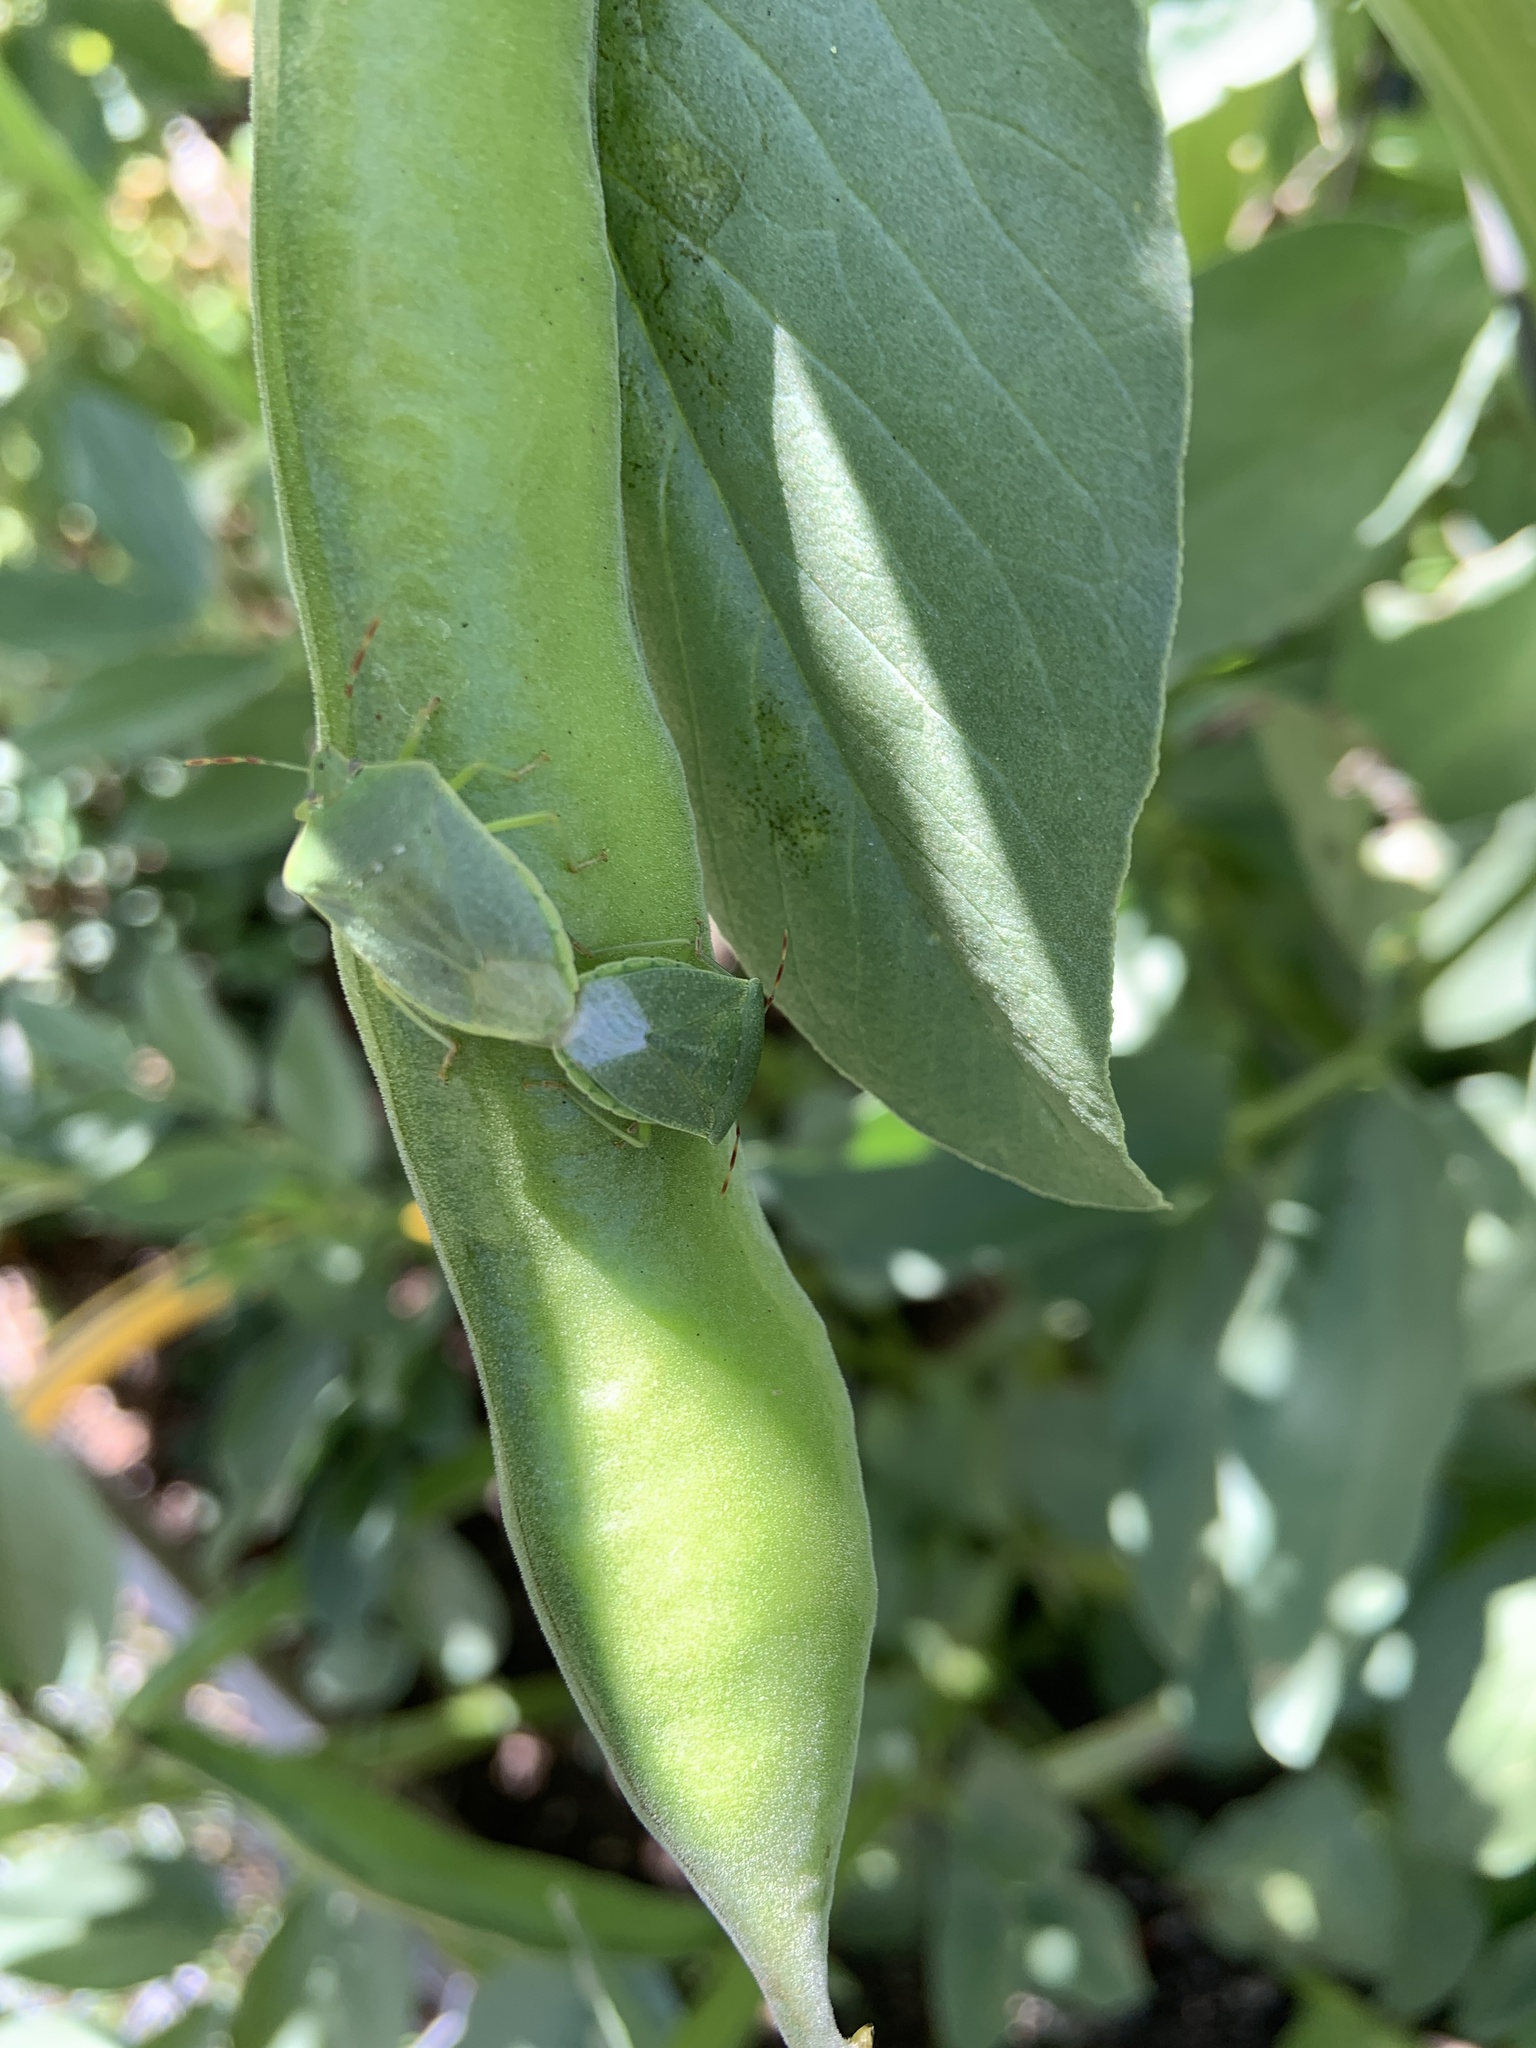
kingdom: Animalia
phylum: Arthropoda
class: Insecta
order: Hemiptera
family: Pentatomidae
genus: Nezara
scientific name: Nezara viridula
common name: Southern green stink bug
